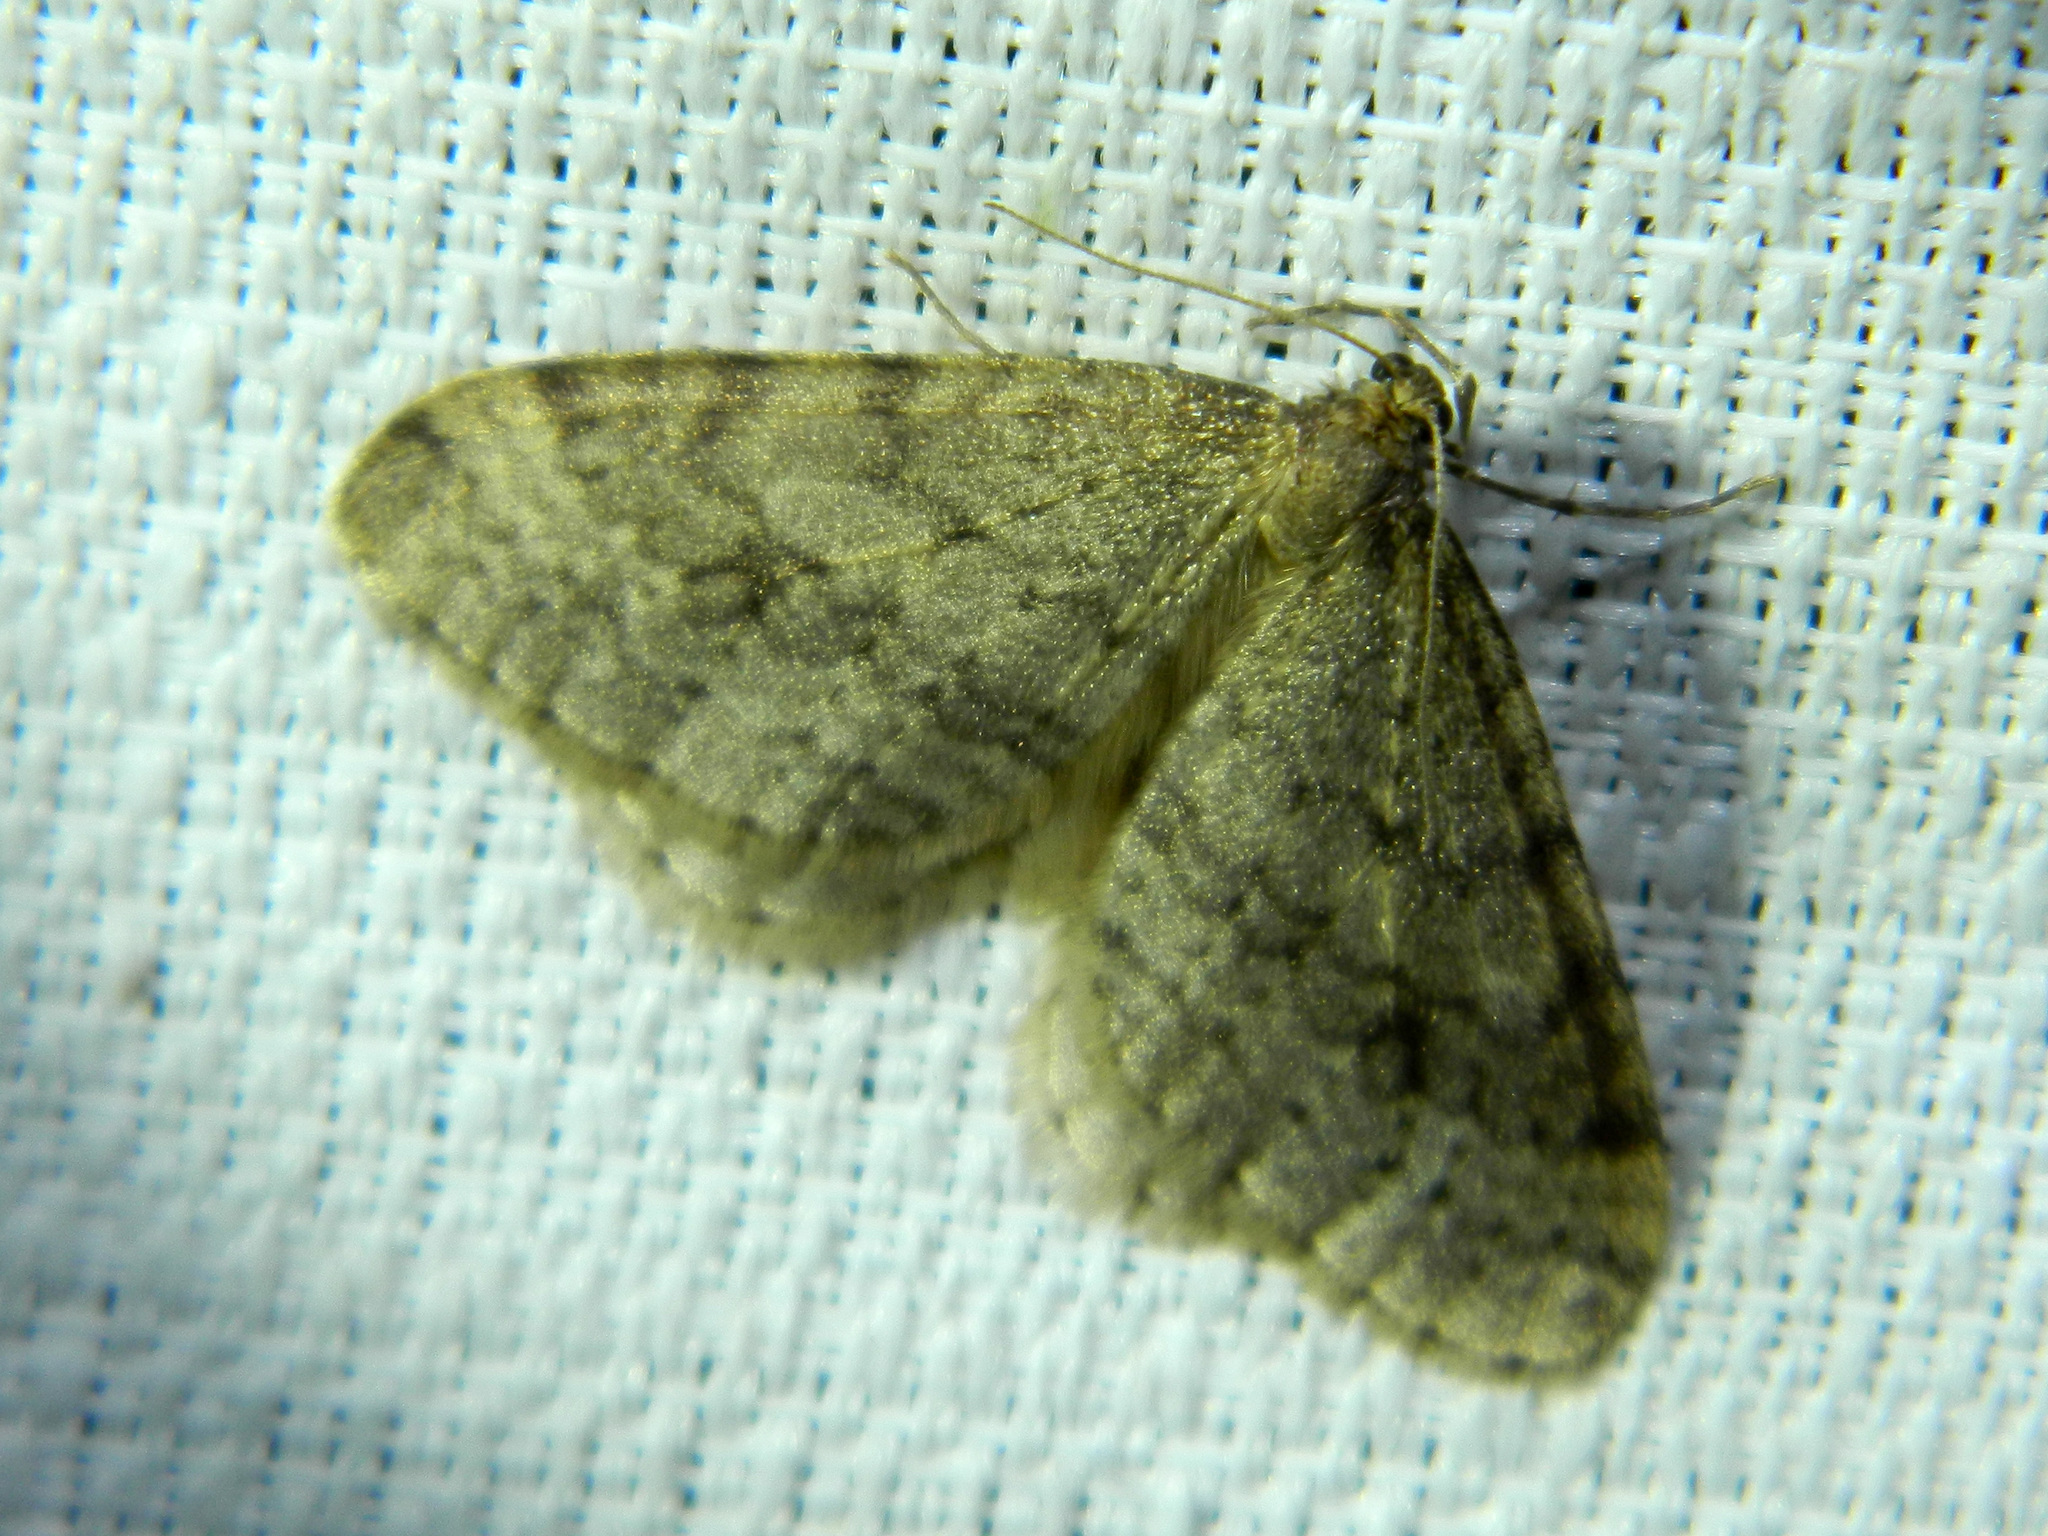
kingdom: Animalia
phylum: Arthropoda
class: Insecta
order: Lepidoptera
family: Geometridae
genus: Operophtera
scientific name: Operophtera bruceata
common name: Bruce spanworm
